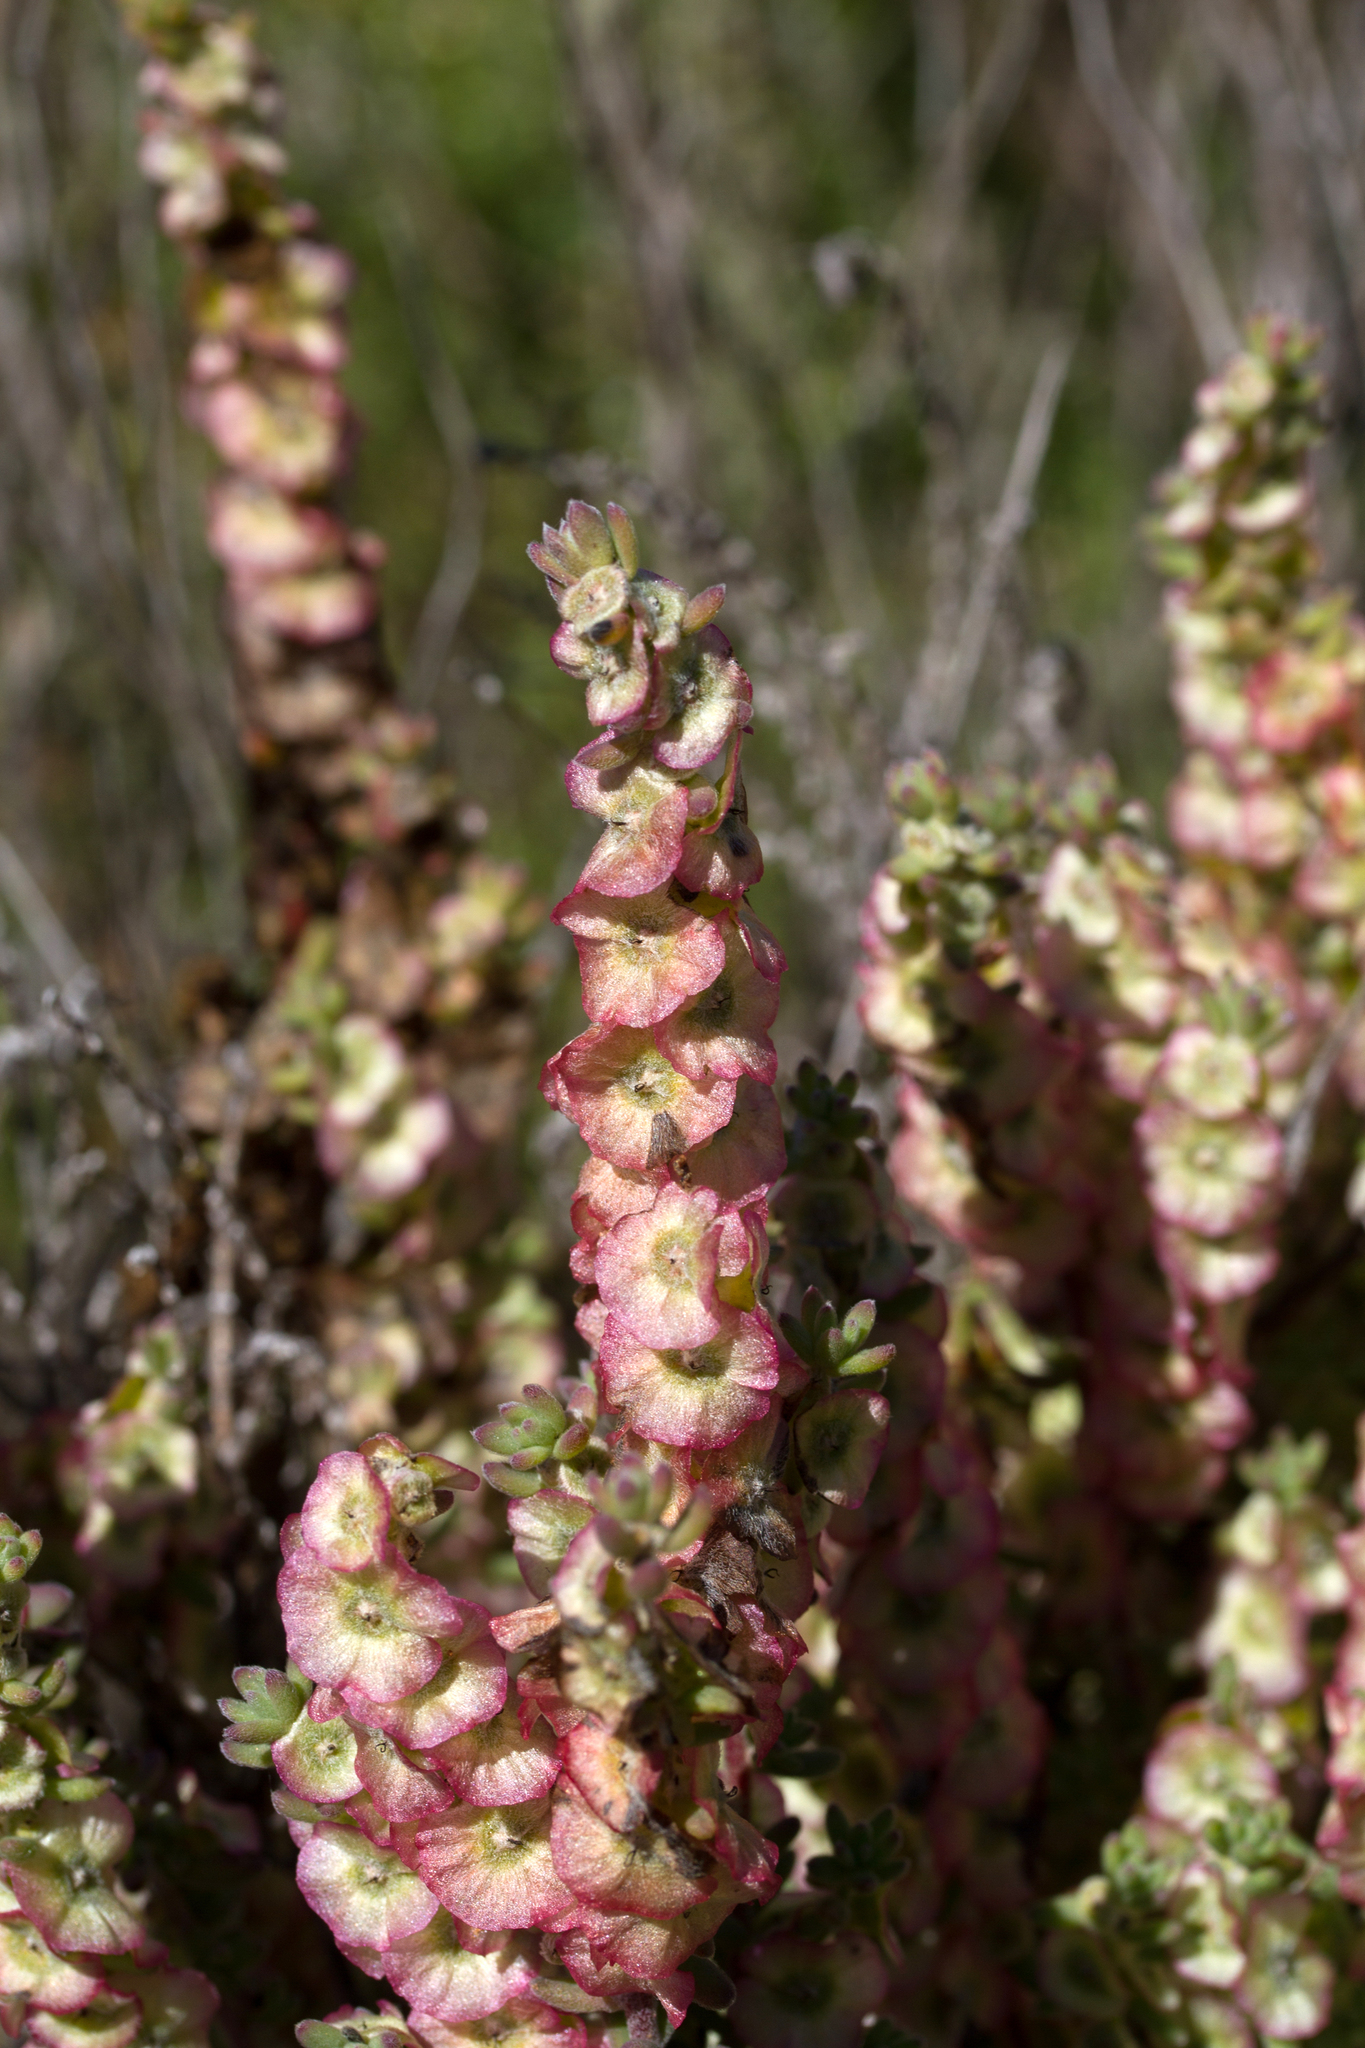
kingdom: Plantae
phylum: Tracheophyta
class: Magnoliopsida
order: Caryophyllales
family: Amaranthaceae
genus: Maireana
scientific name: Maireana trichoptera
